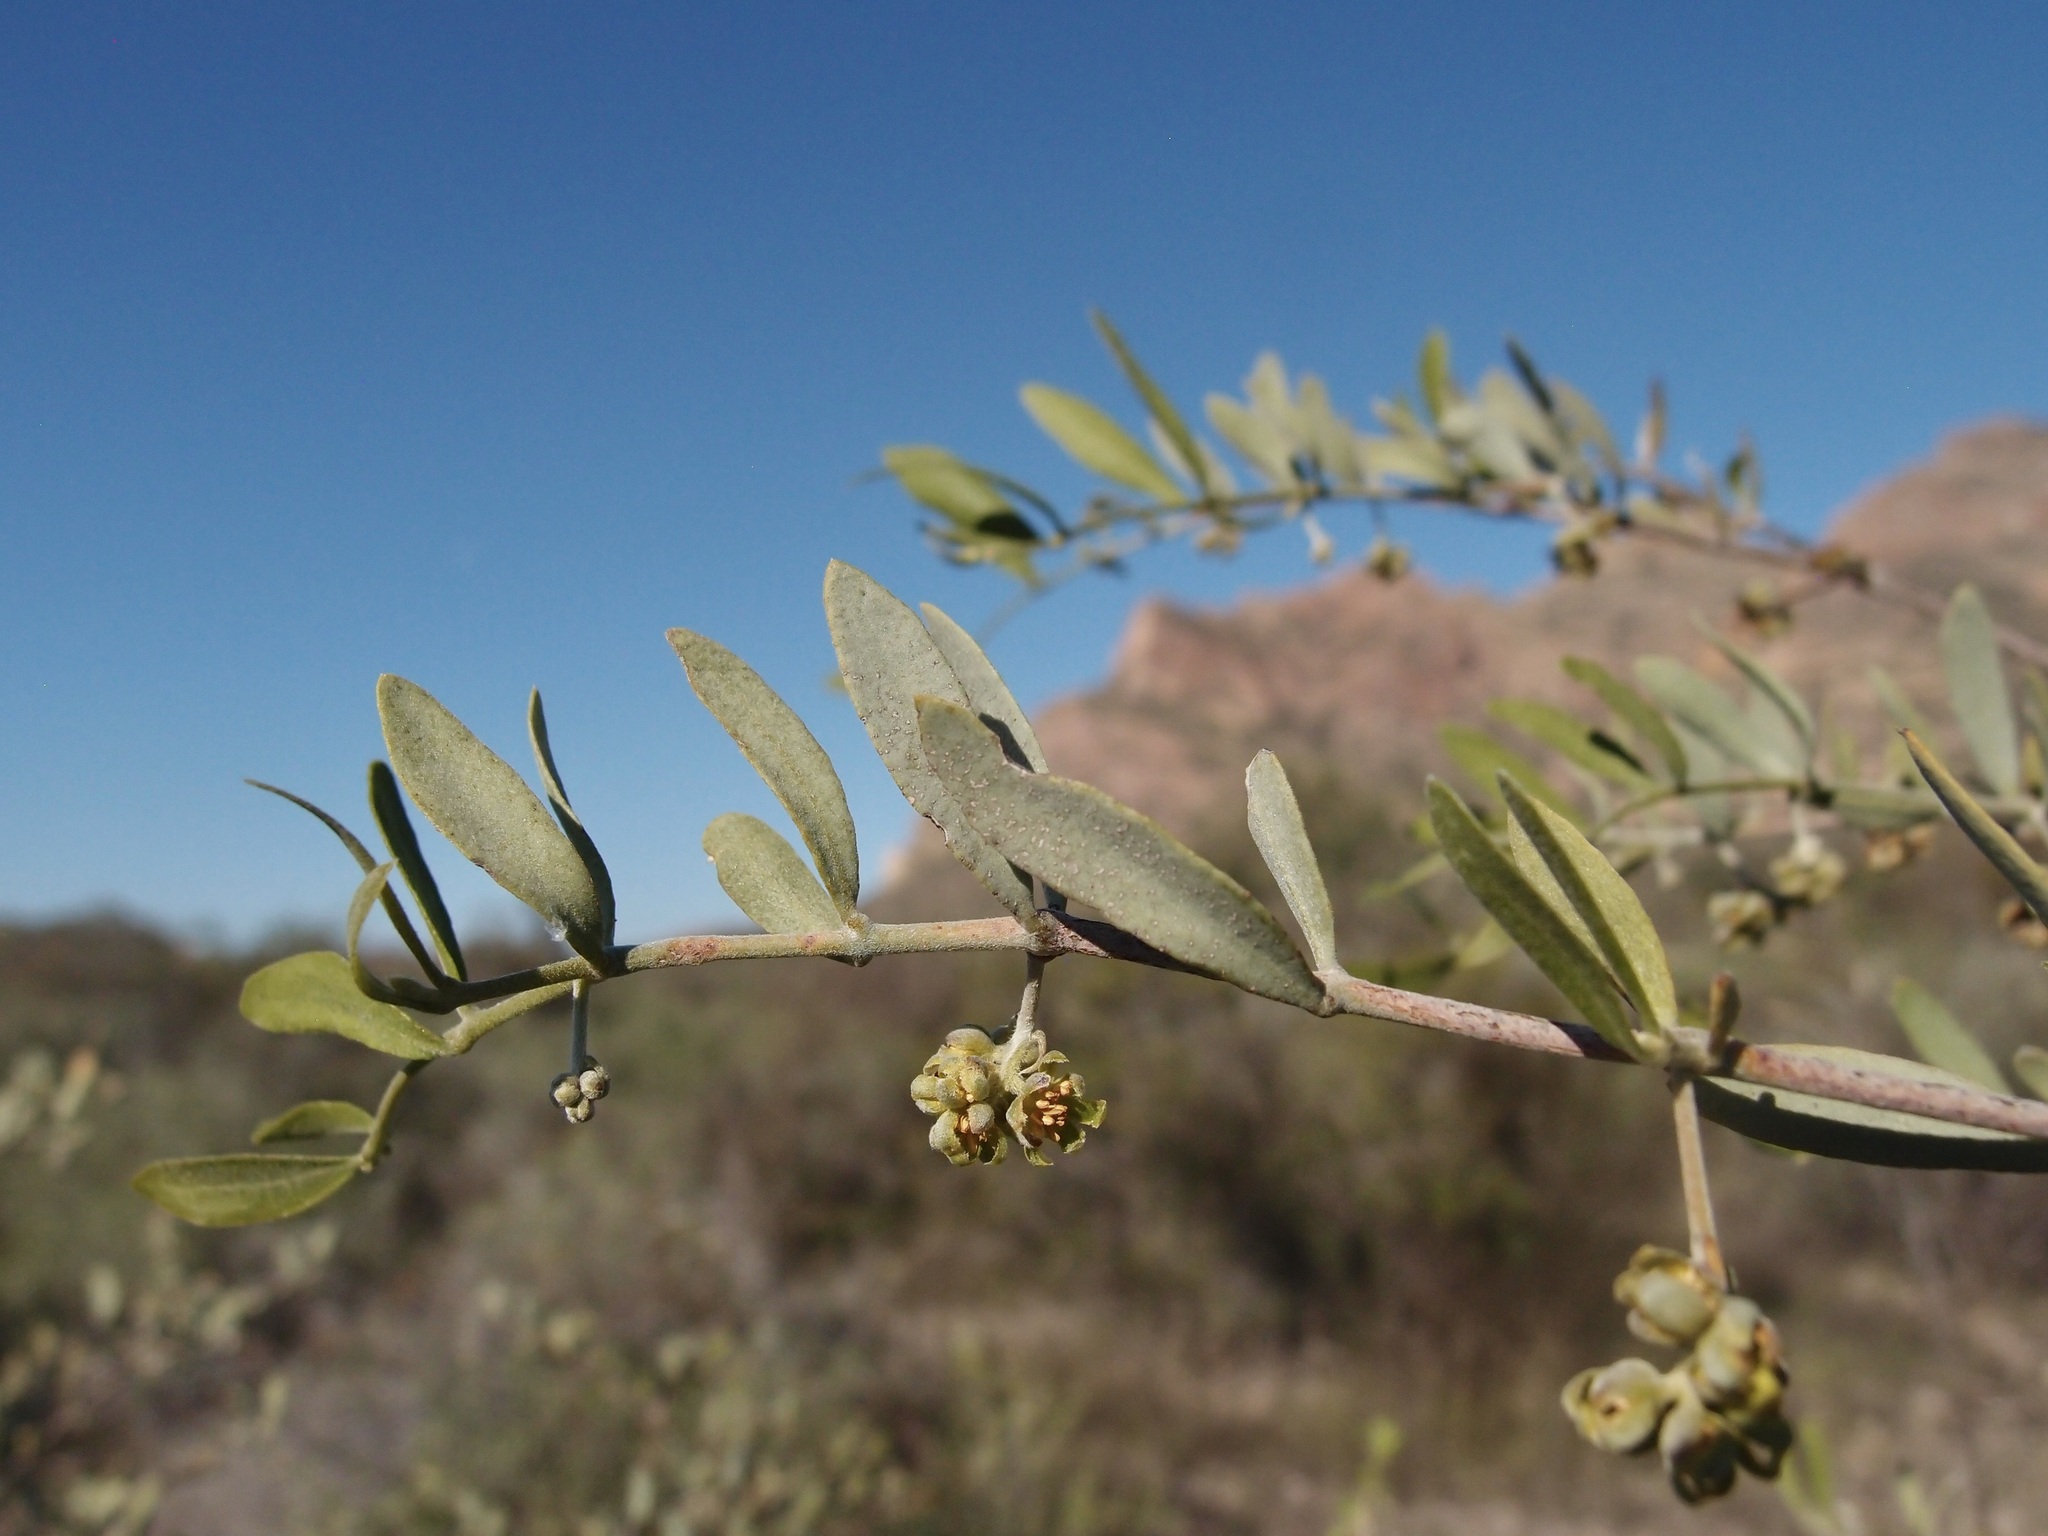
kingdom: Plantae
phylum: Tracheophyta
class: Magnoliopsida
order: Caryophyllales
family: Simmondsiaceae
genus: Simmondsia
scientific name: Simmondsia chinensis
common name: Jojoba
